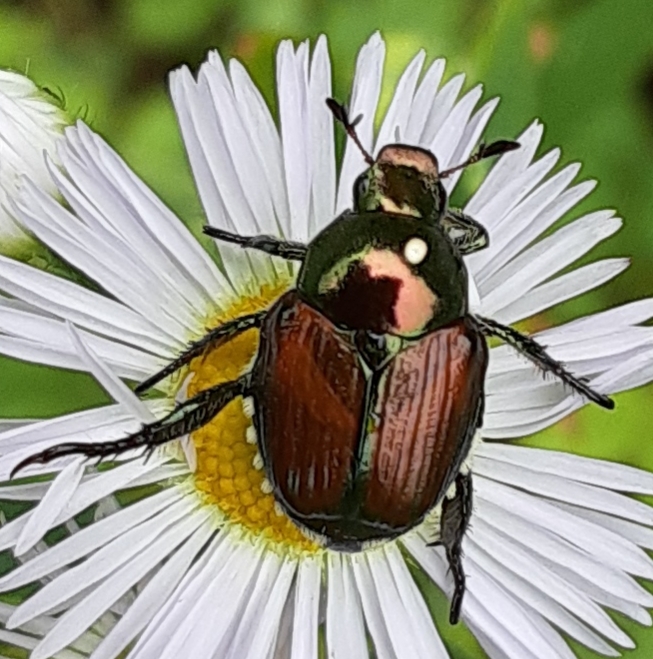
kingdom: Animalia
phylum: Arthropoda
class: Insecta
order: Coleoptera
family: Scarabaeidae
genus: Popillia
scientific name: Popillia japonica
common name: Japanese beetle
